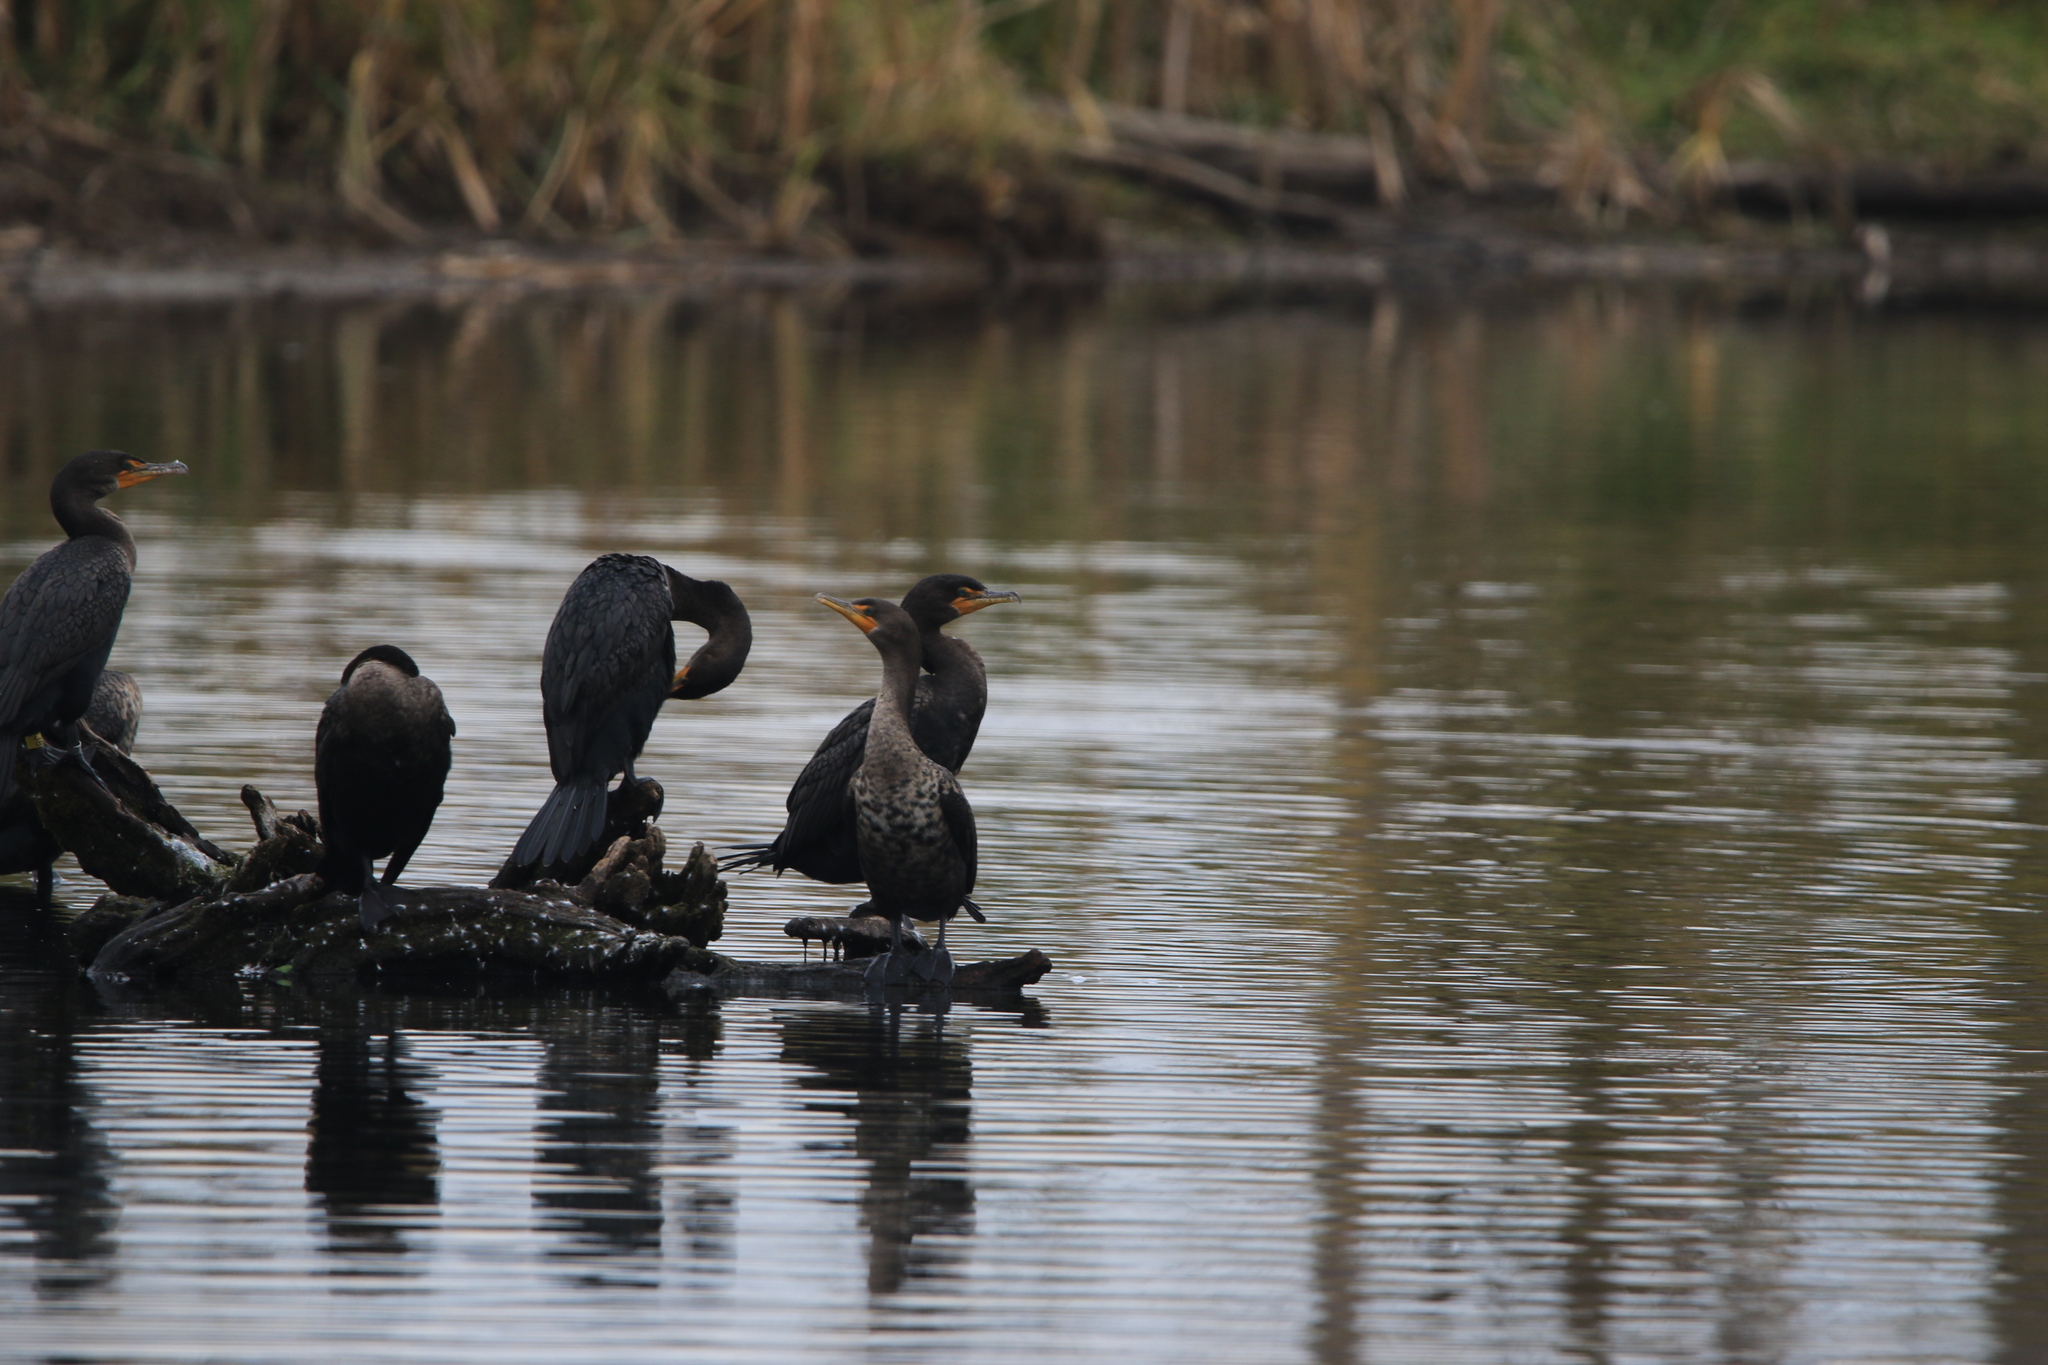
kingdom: Animalia
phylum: Chordata
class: Aves
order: Suliformes
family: Phalacrocoracidae
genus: Phalacrocorax
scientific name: Phalacrocorax auritus
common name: Double-crested cormorant
